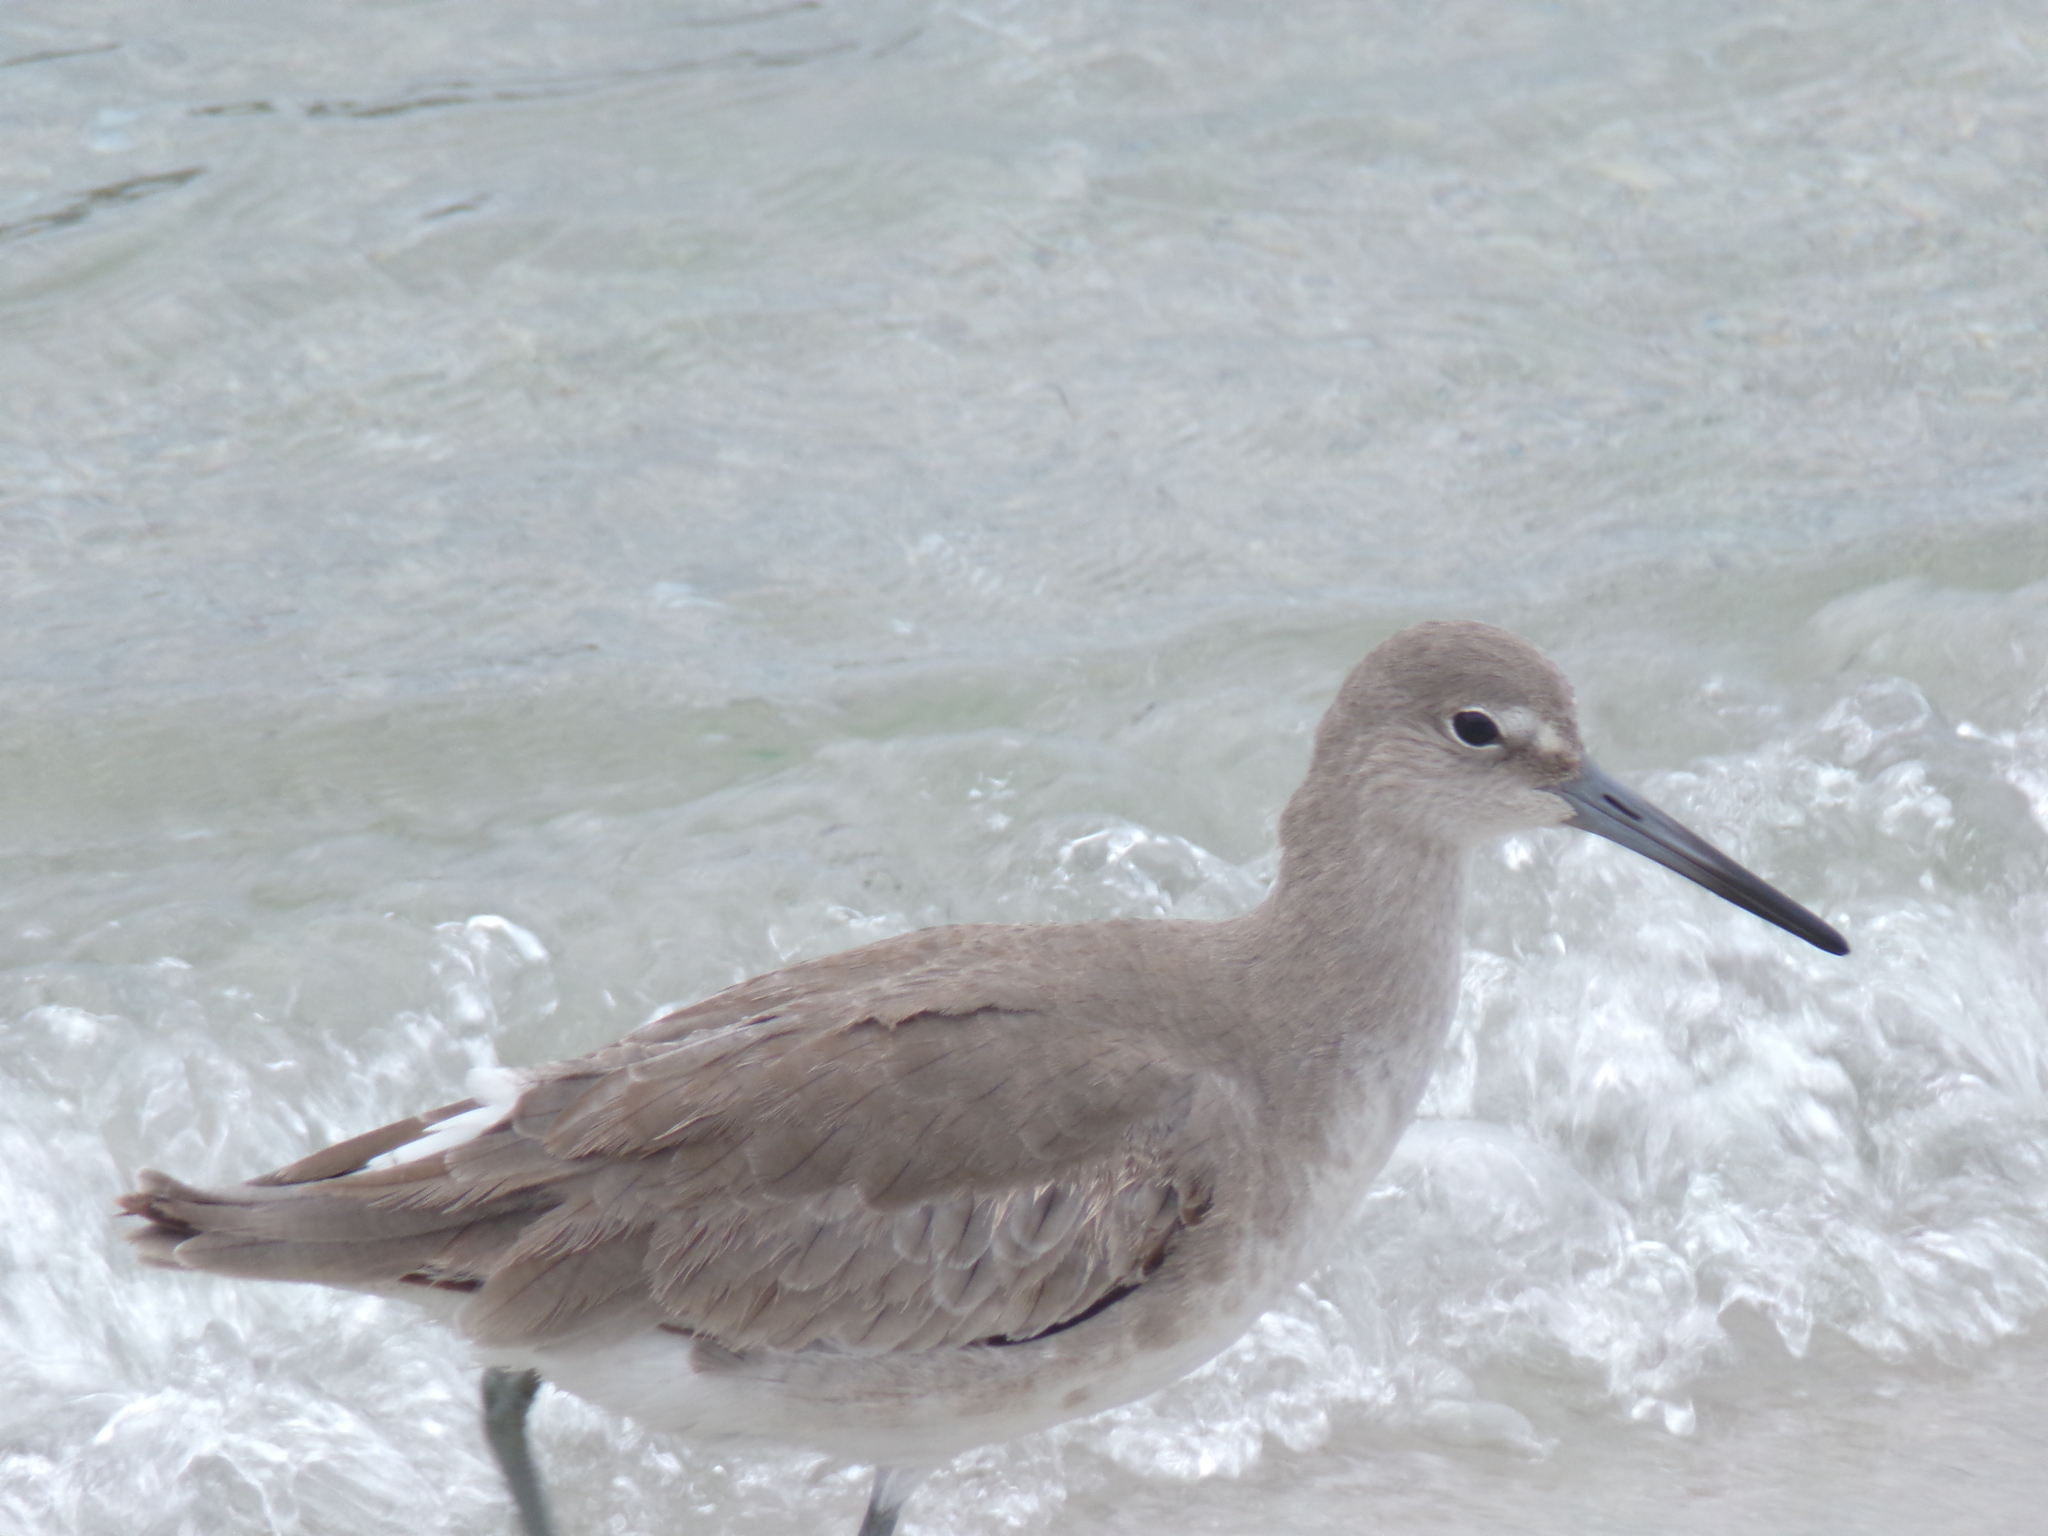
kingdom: Animalia
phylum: Chordata
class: Aves
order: Charadriiformes
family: Scolopacidae
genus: Tringa
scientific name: Tringa semipalmata
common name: Willet
